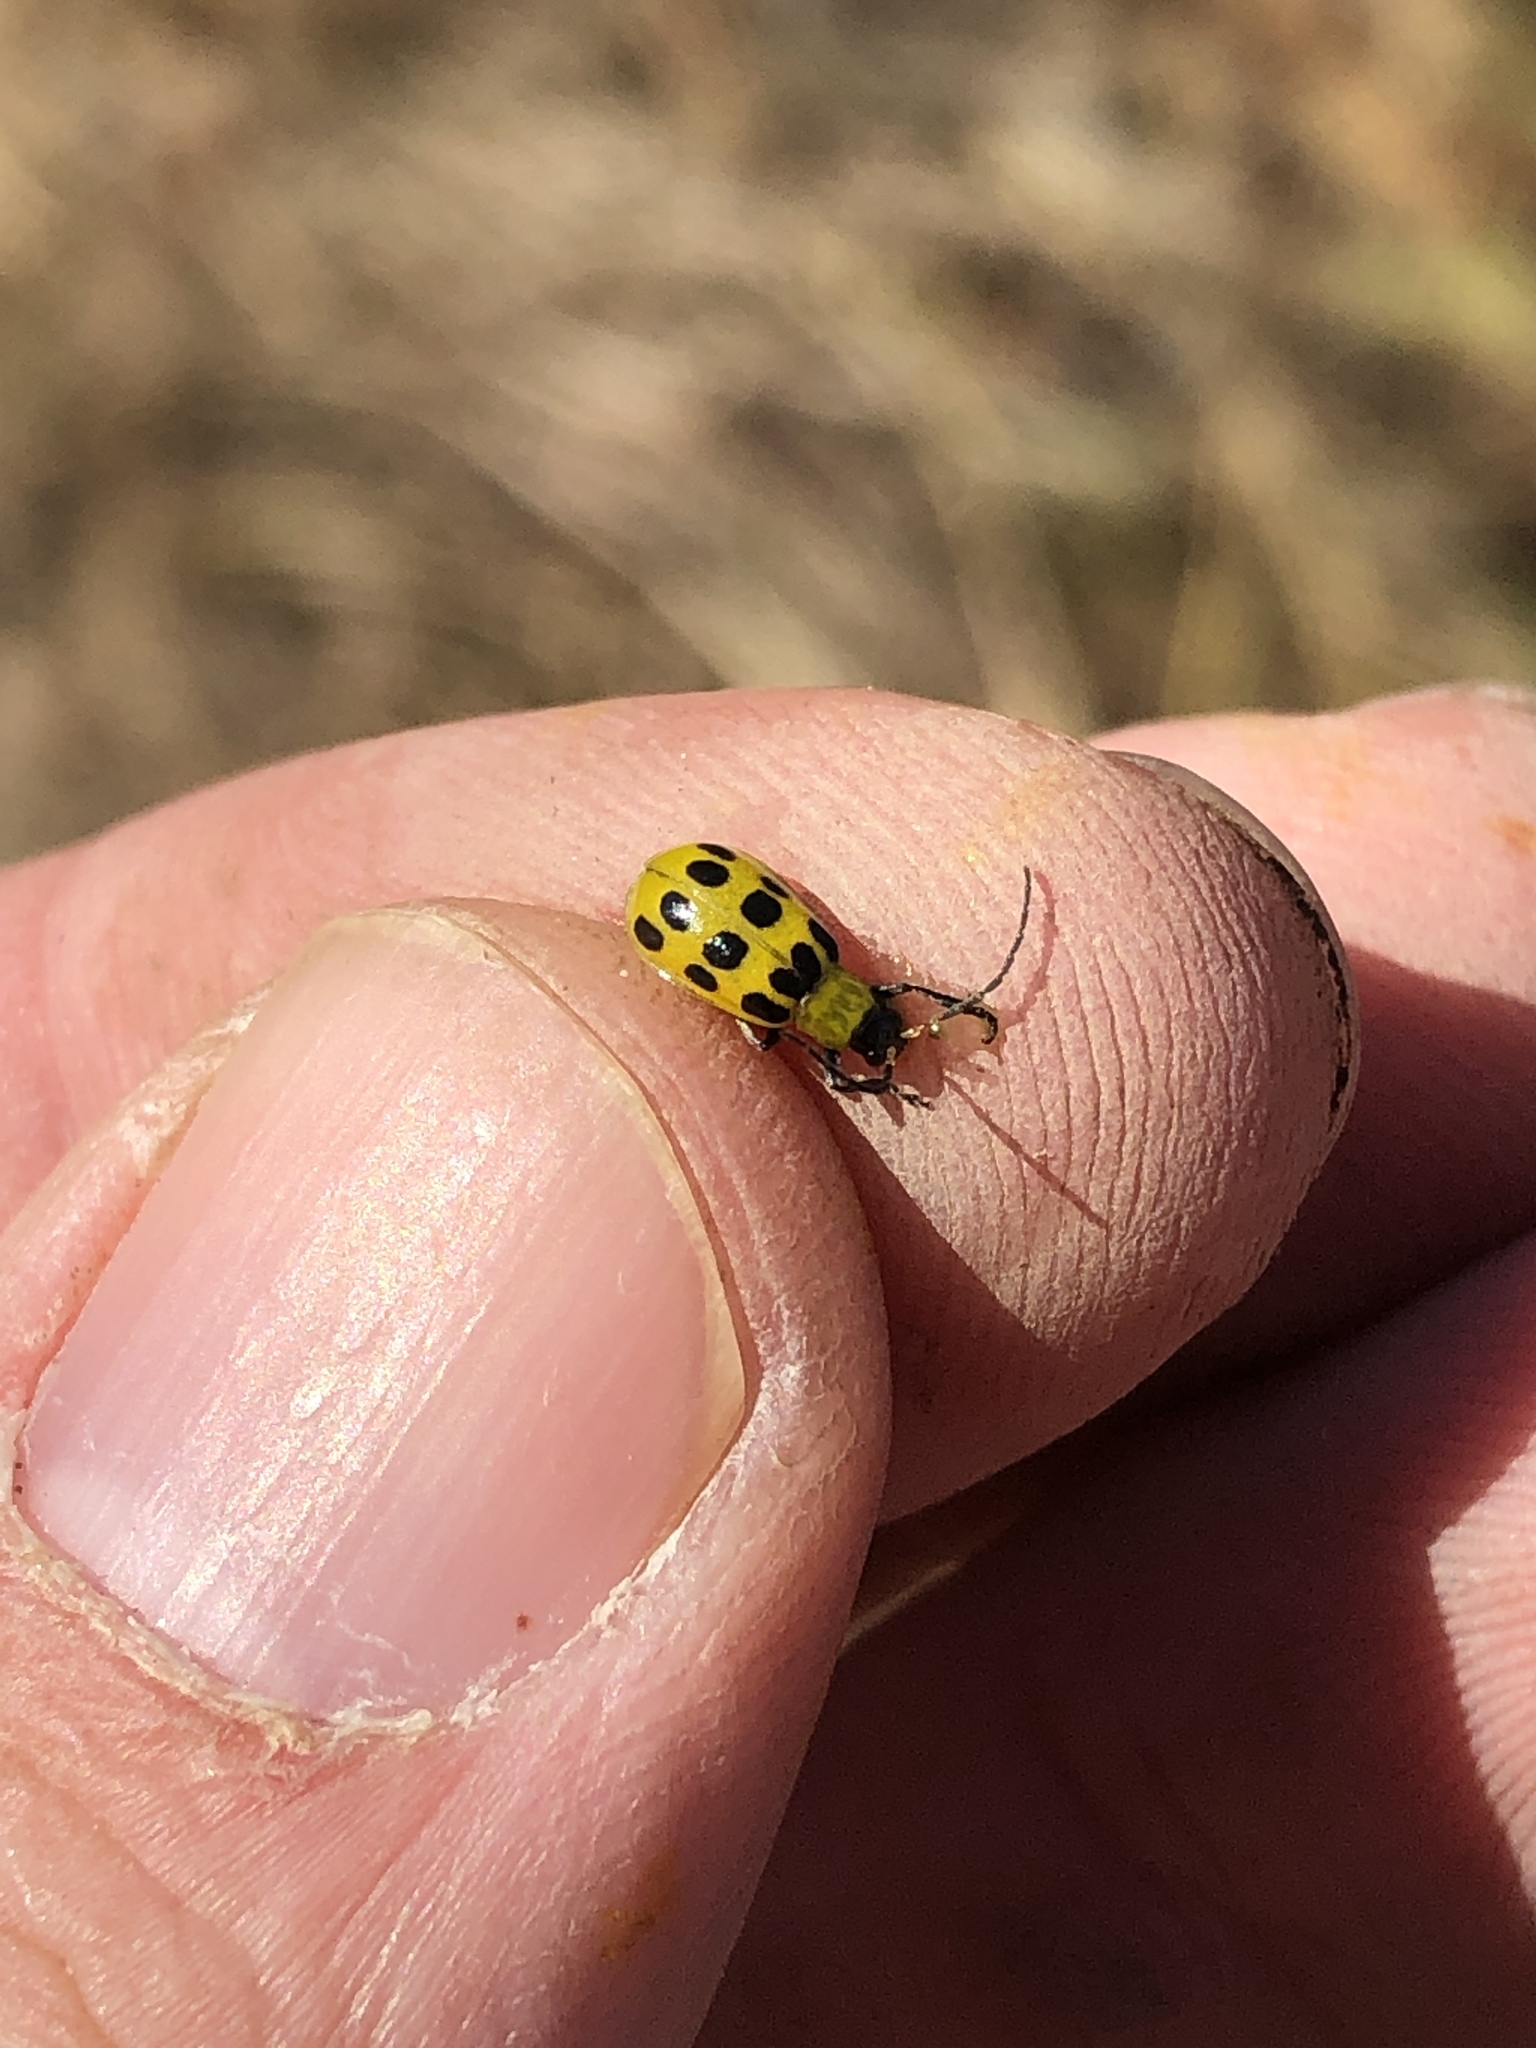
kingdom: Animalia
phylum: Arthropoda
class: Insecta
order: Coleoptera
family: Chrysomelidae
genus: Diabrotica
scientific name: Diabrotica undecimpunctata
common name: Spotted cucumber beetle
